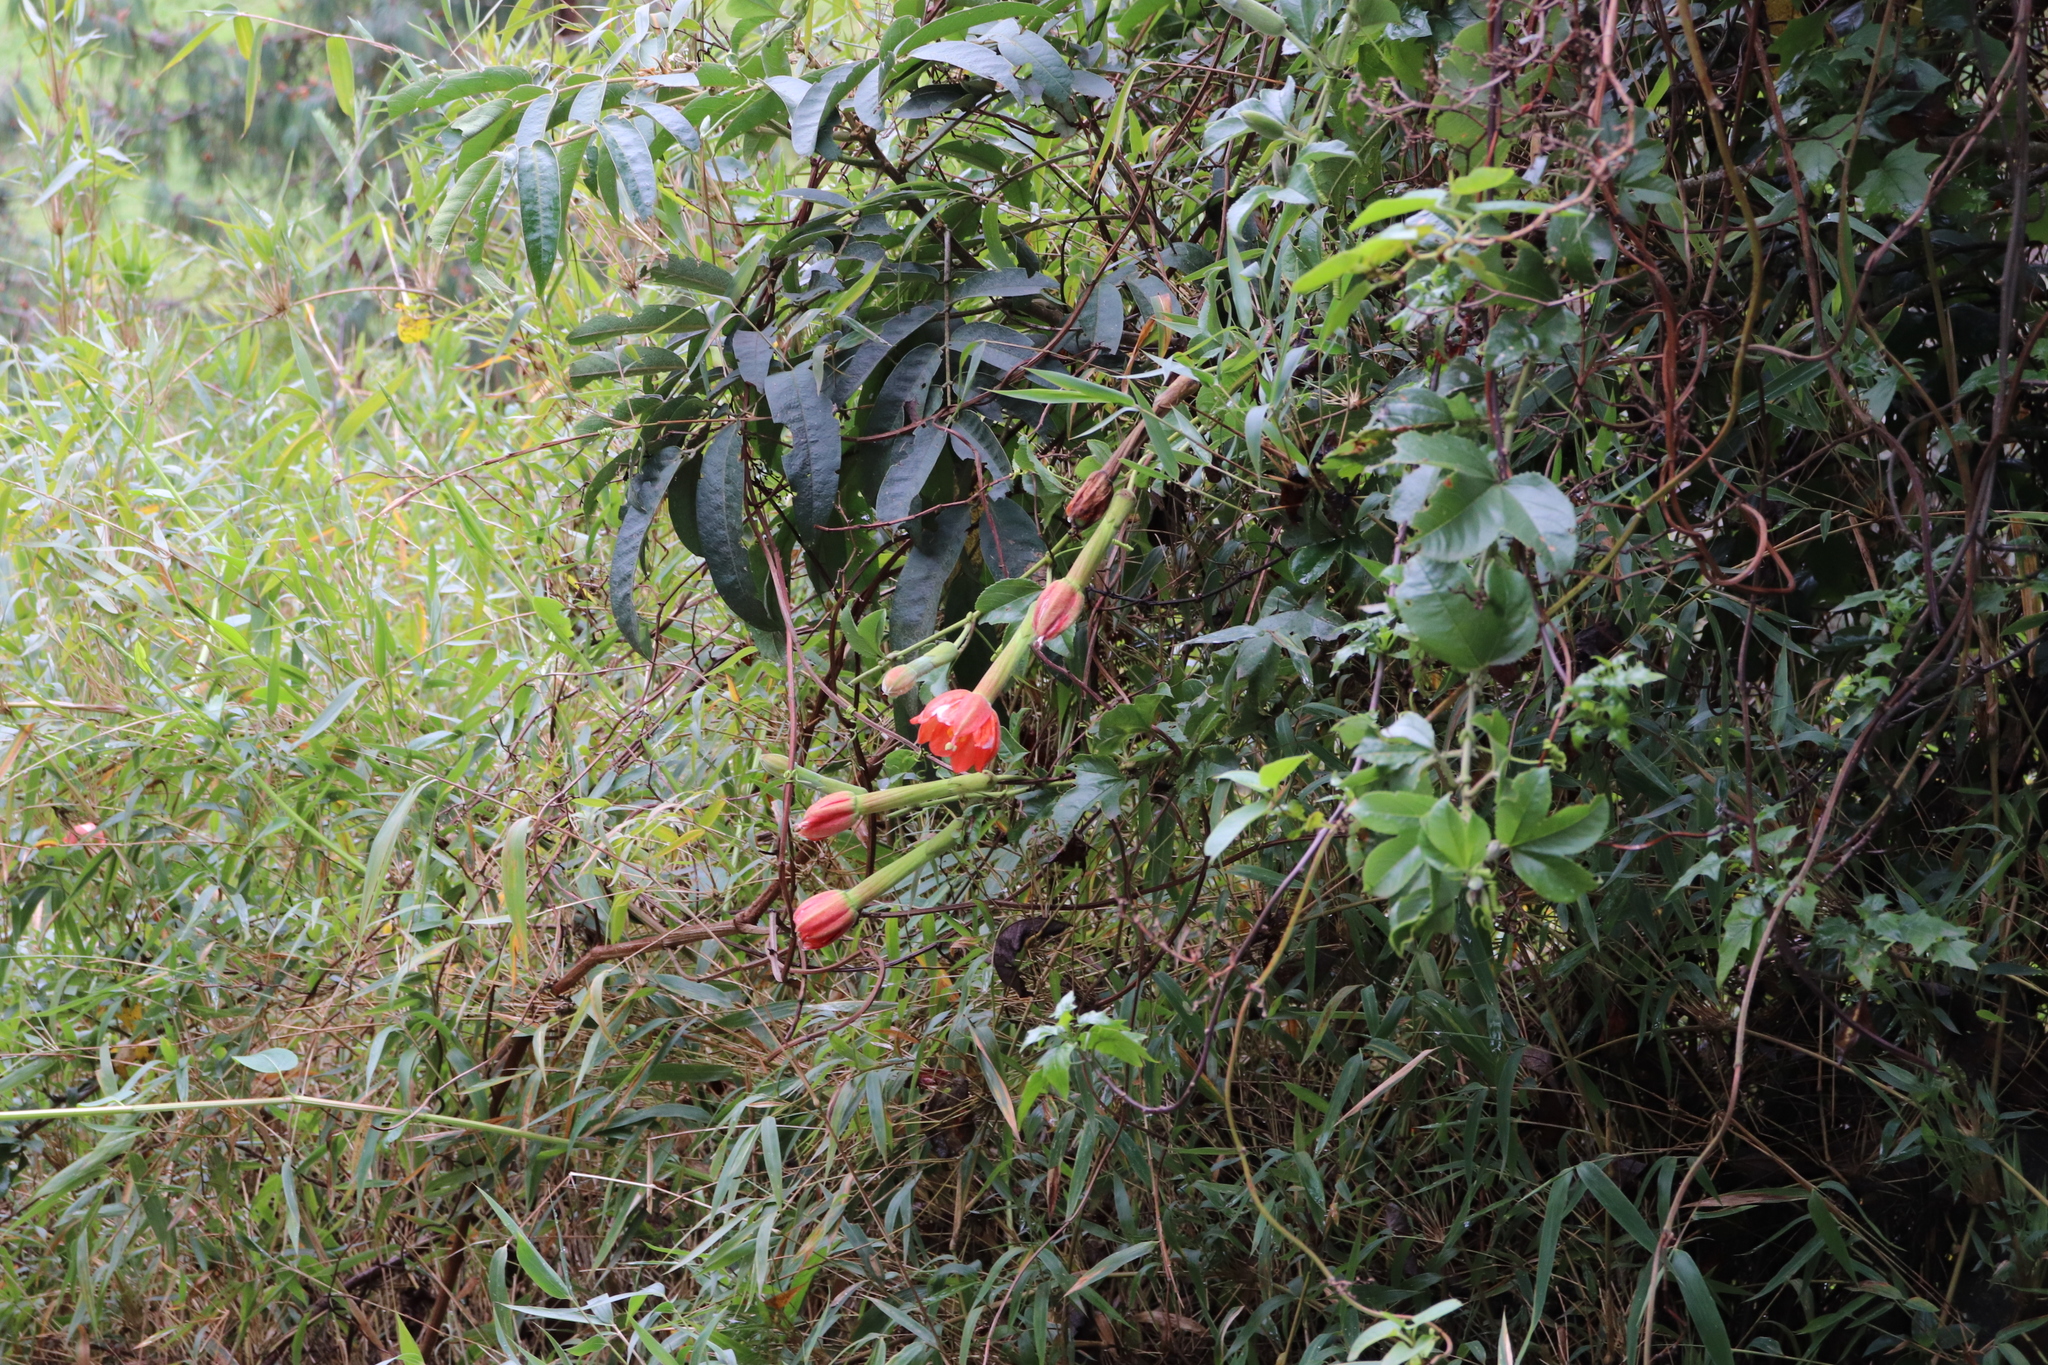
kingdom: Plantae
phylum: Tracheophyta
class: Magnoliopsida
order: Malpighiales
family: Passifloraceae
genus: Passiflora
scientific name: Passiflora mixta
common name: Passion flower
